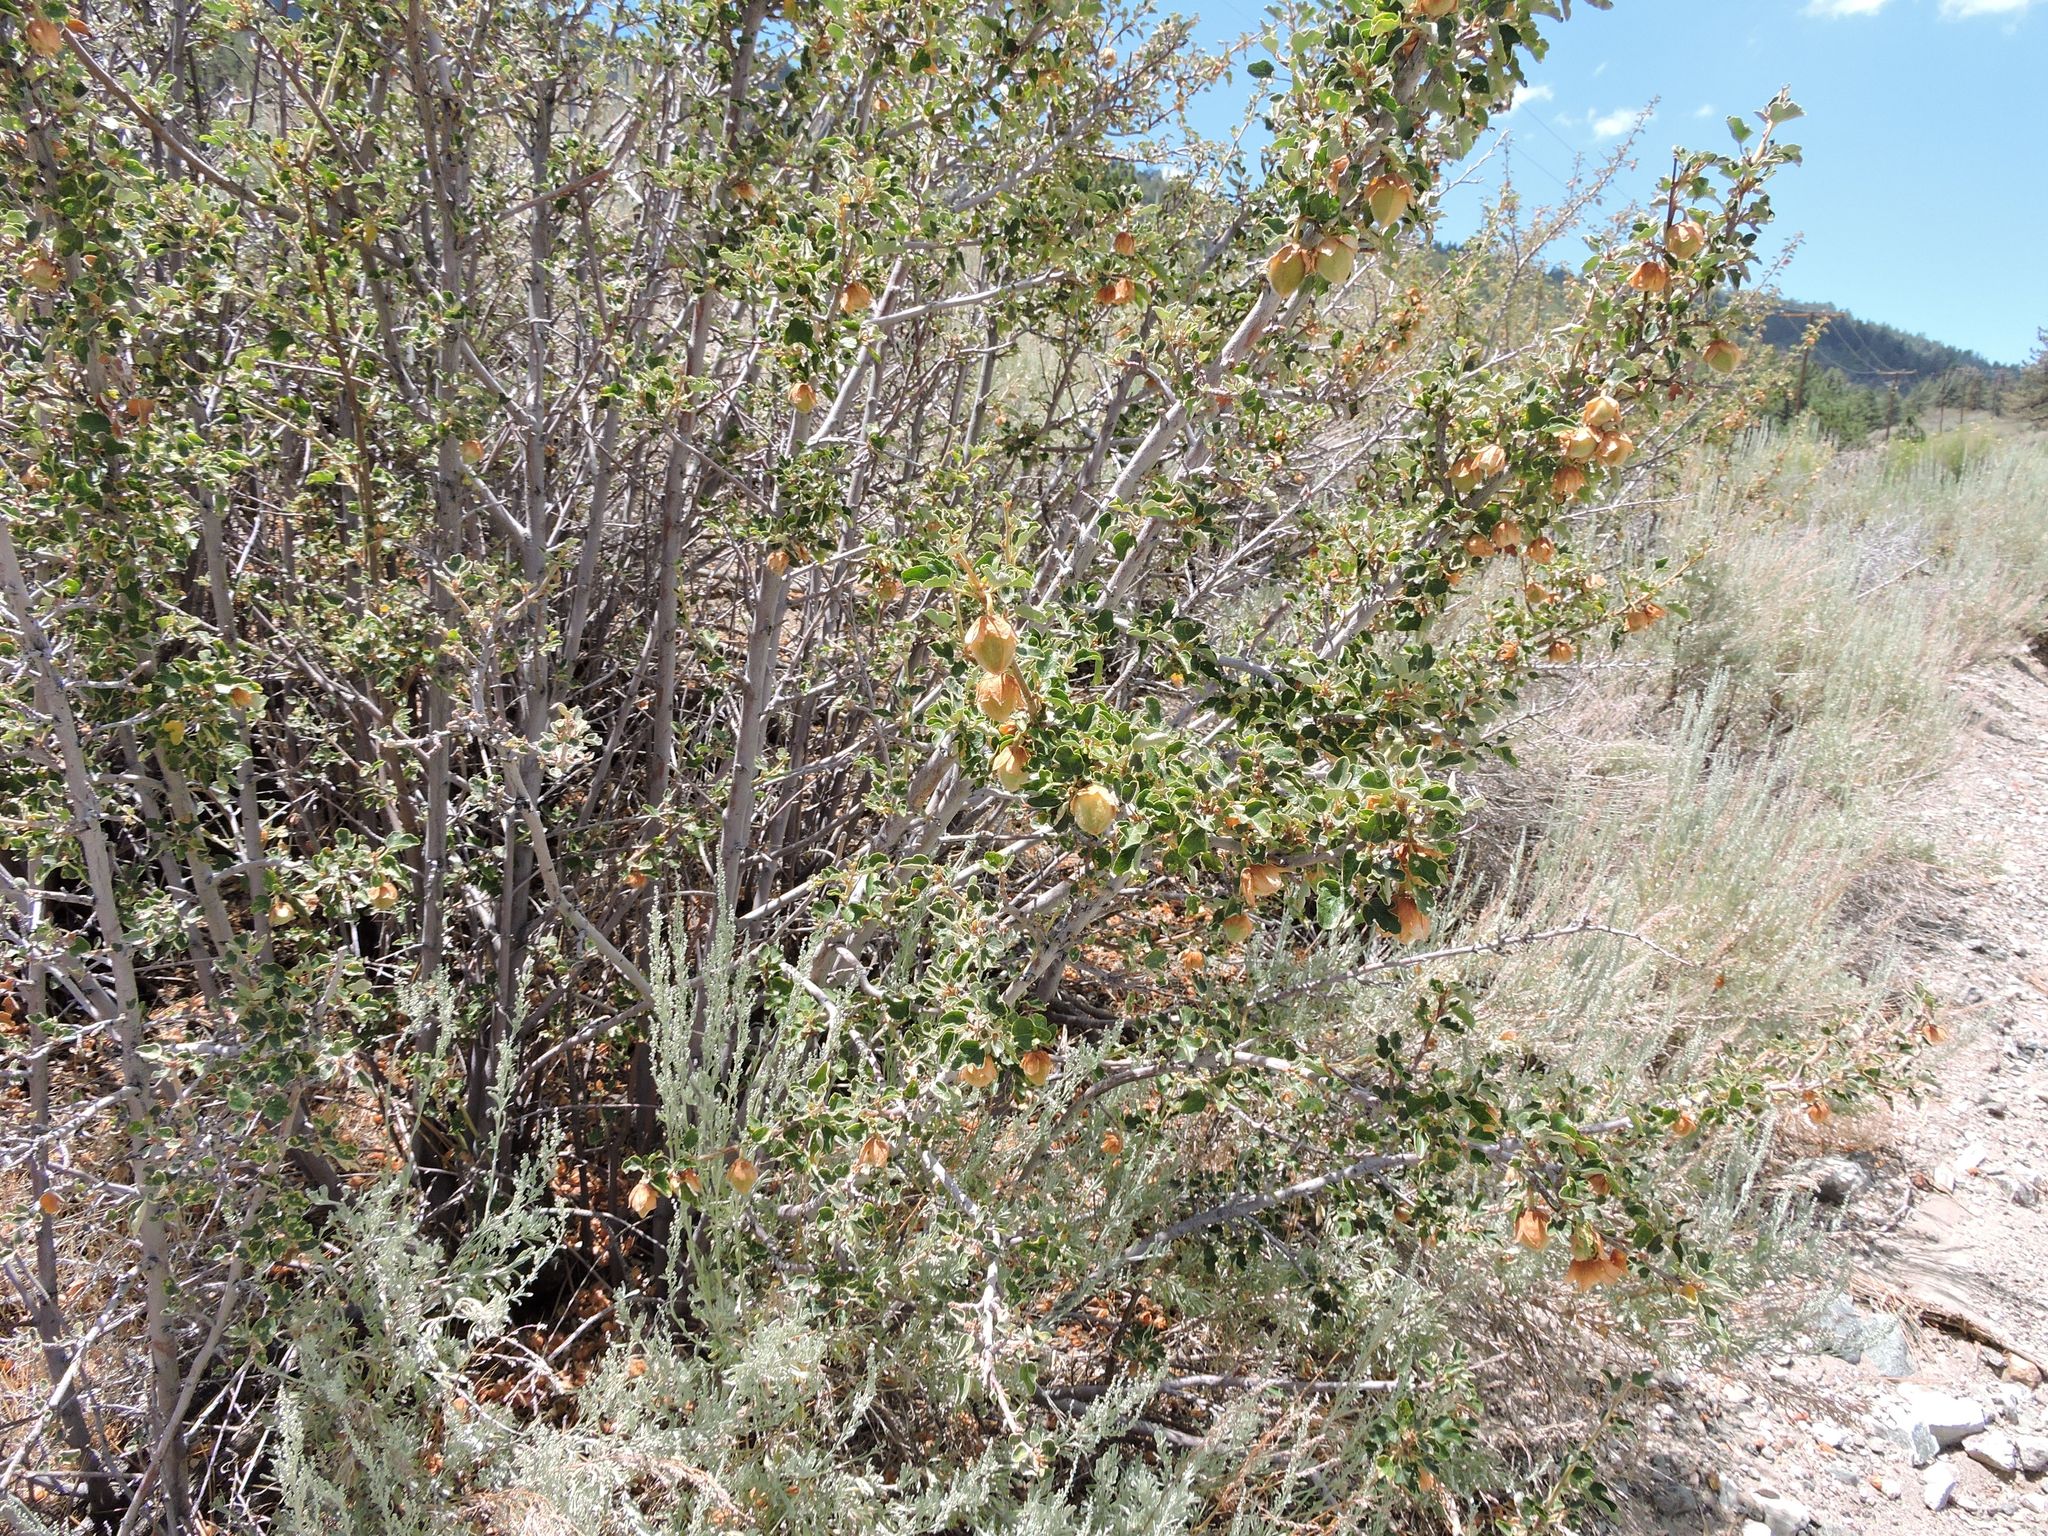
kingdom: Plantae
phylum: Tracheophyta
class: Magnoliopsida
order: Malvales
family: Malvaceae
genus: Fremontodendron
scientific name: Fremontodendron californicum
